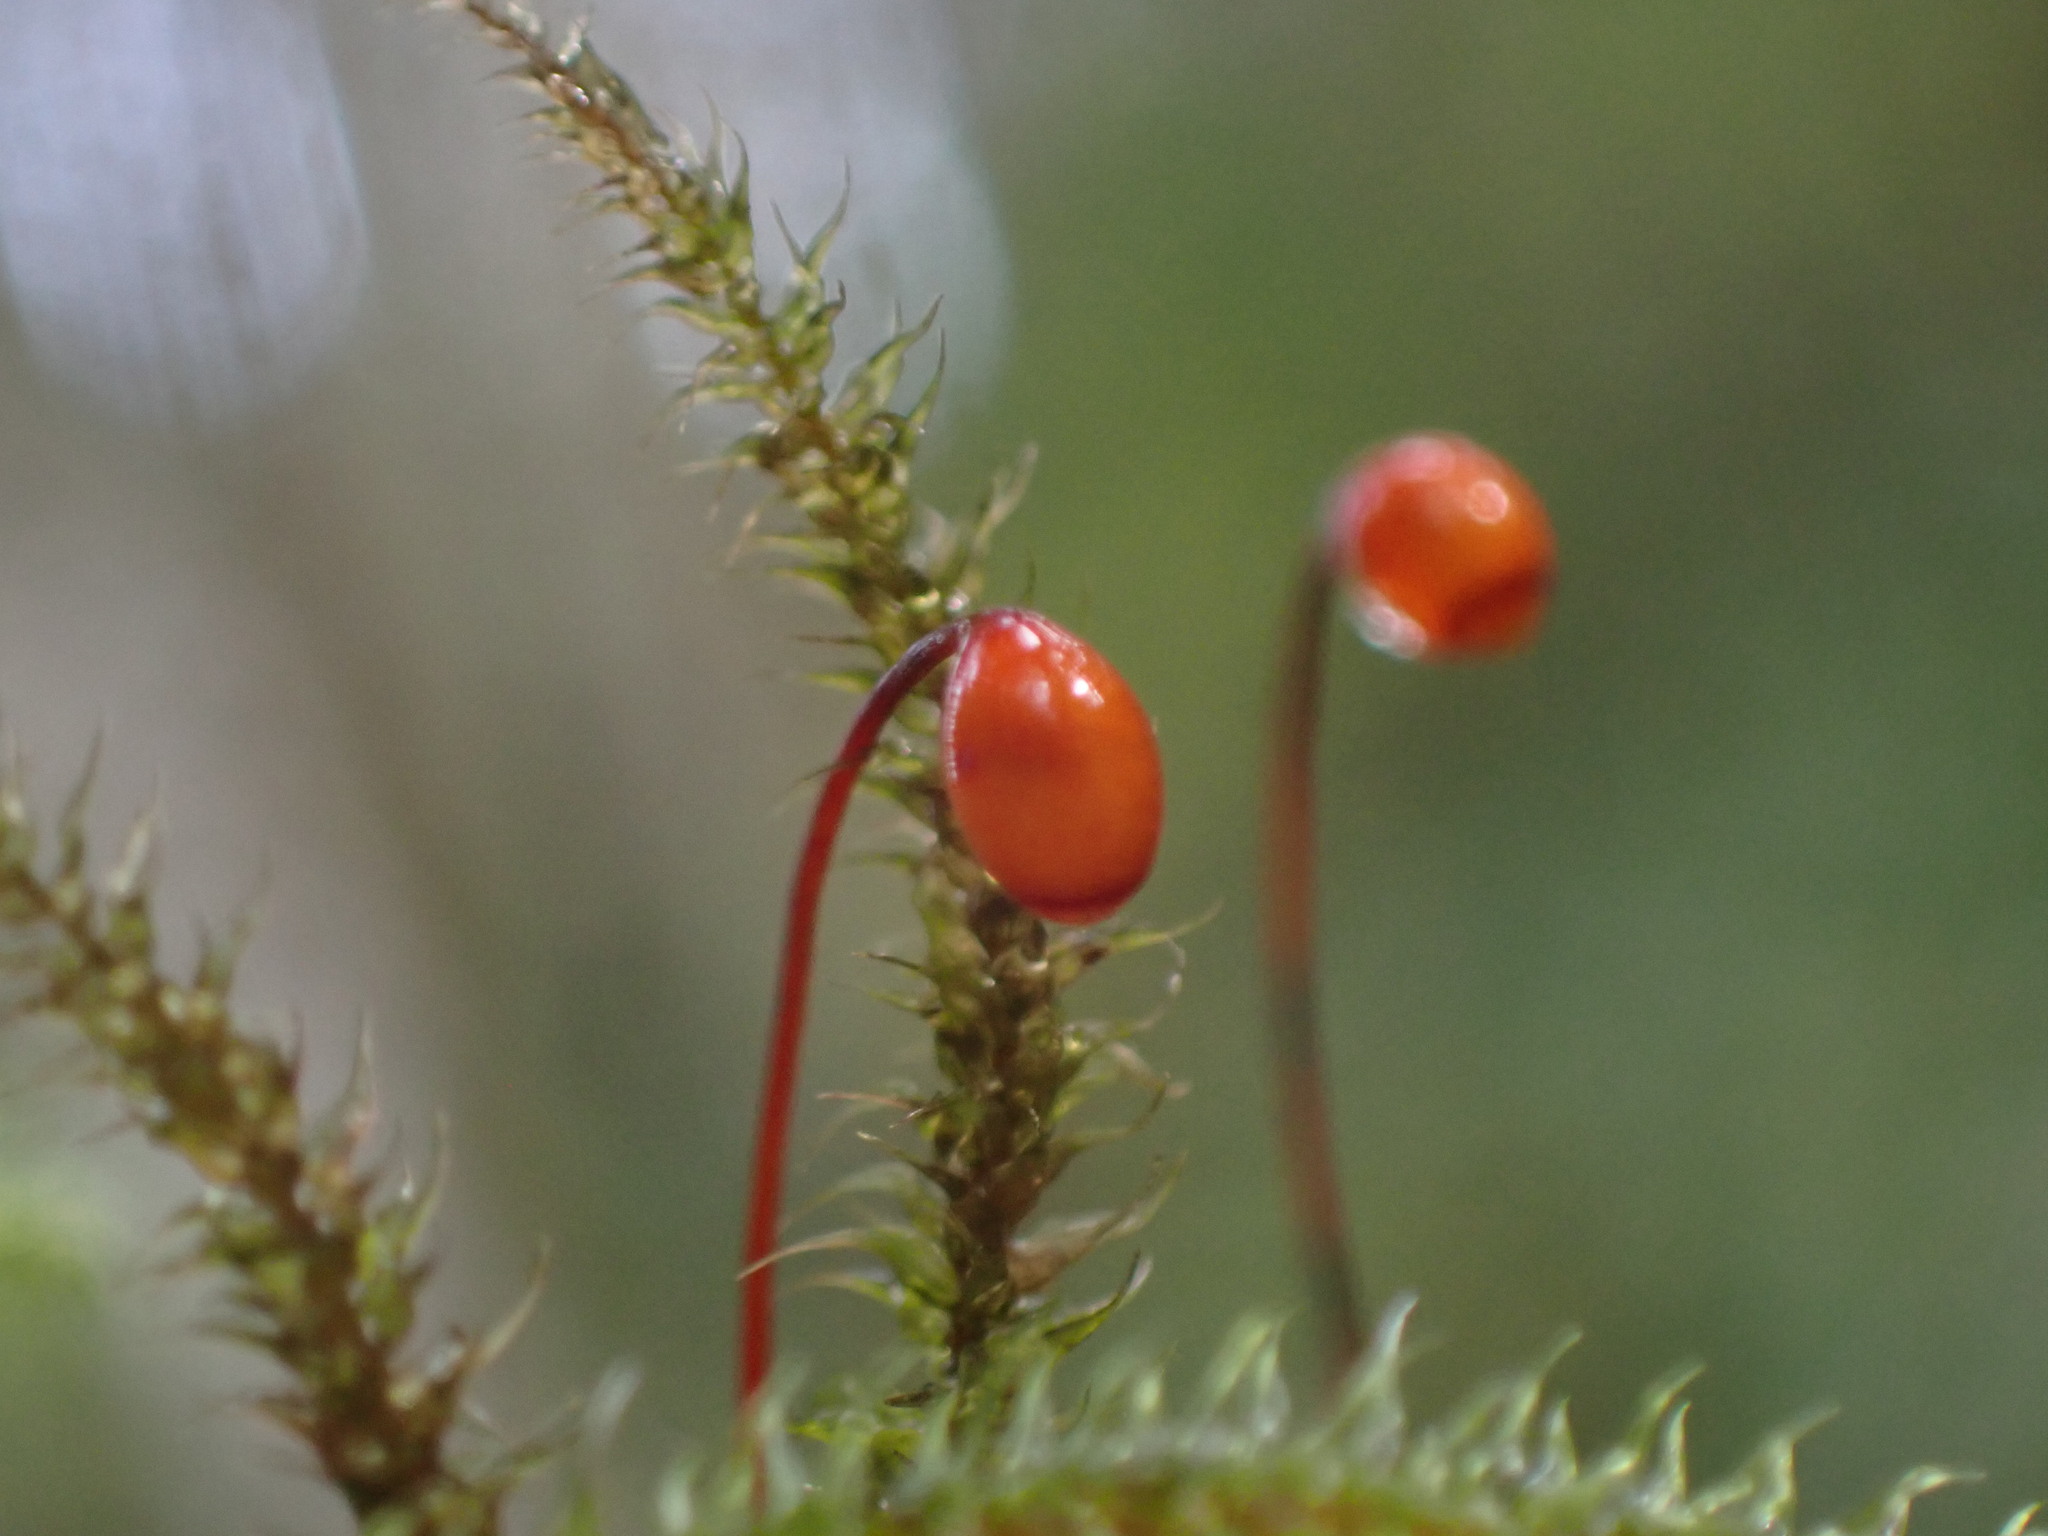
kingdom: Plantae
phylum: Bryophyta
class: Bryopsida
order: Hypnales
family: Hylocomiaceae
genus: Rhytidiadelphus
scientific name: Rhytidiadelphus loreus
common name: Lanky moss
